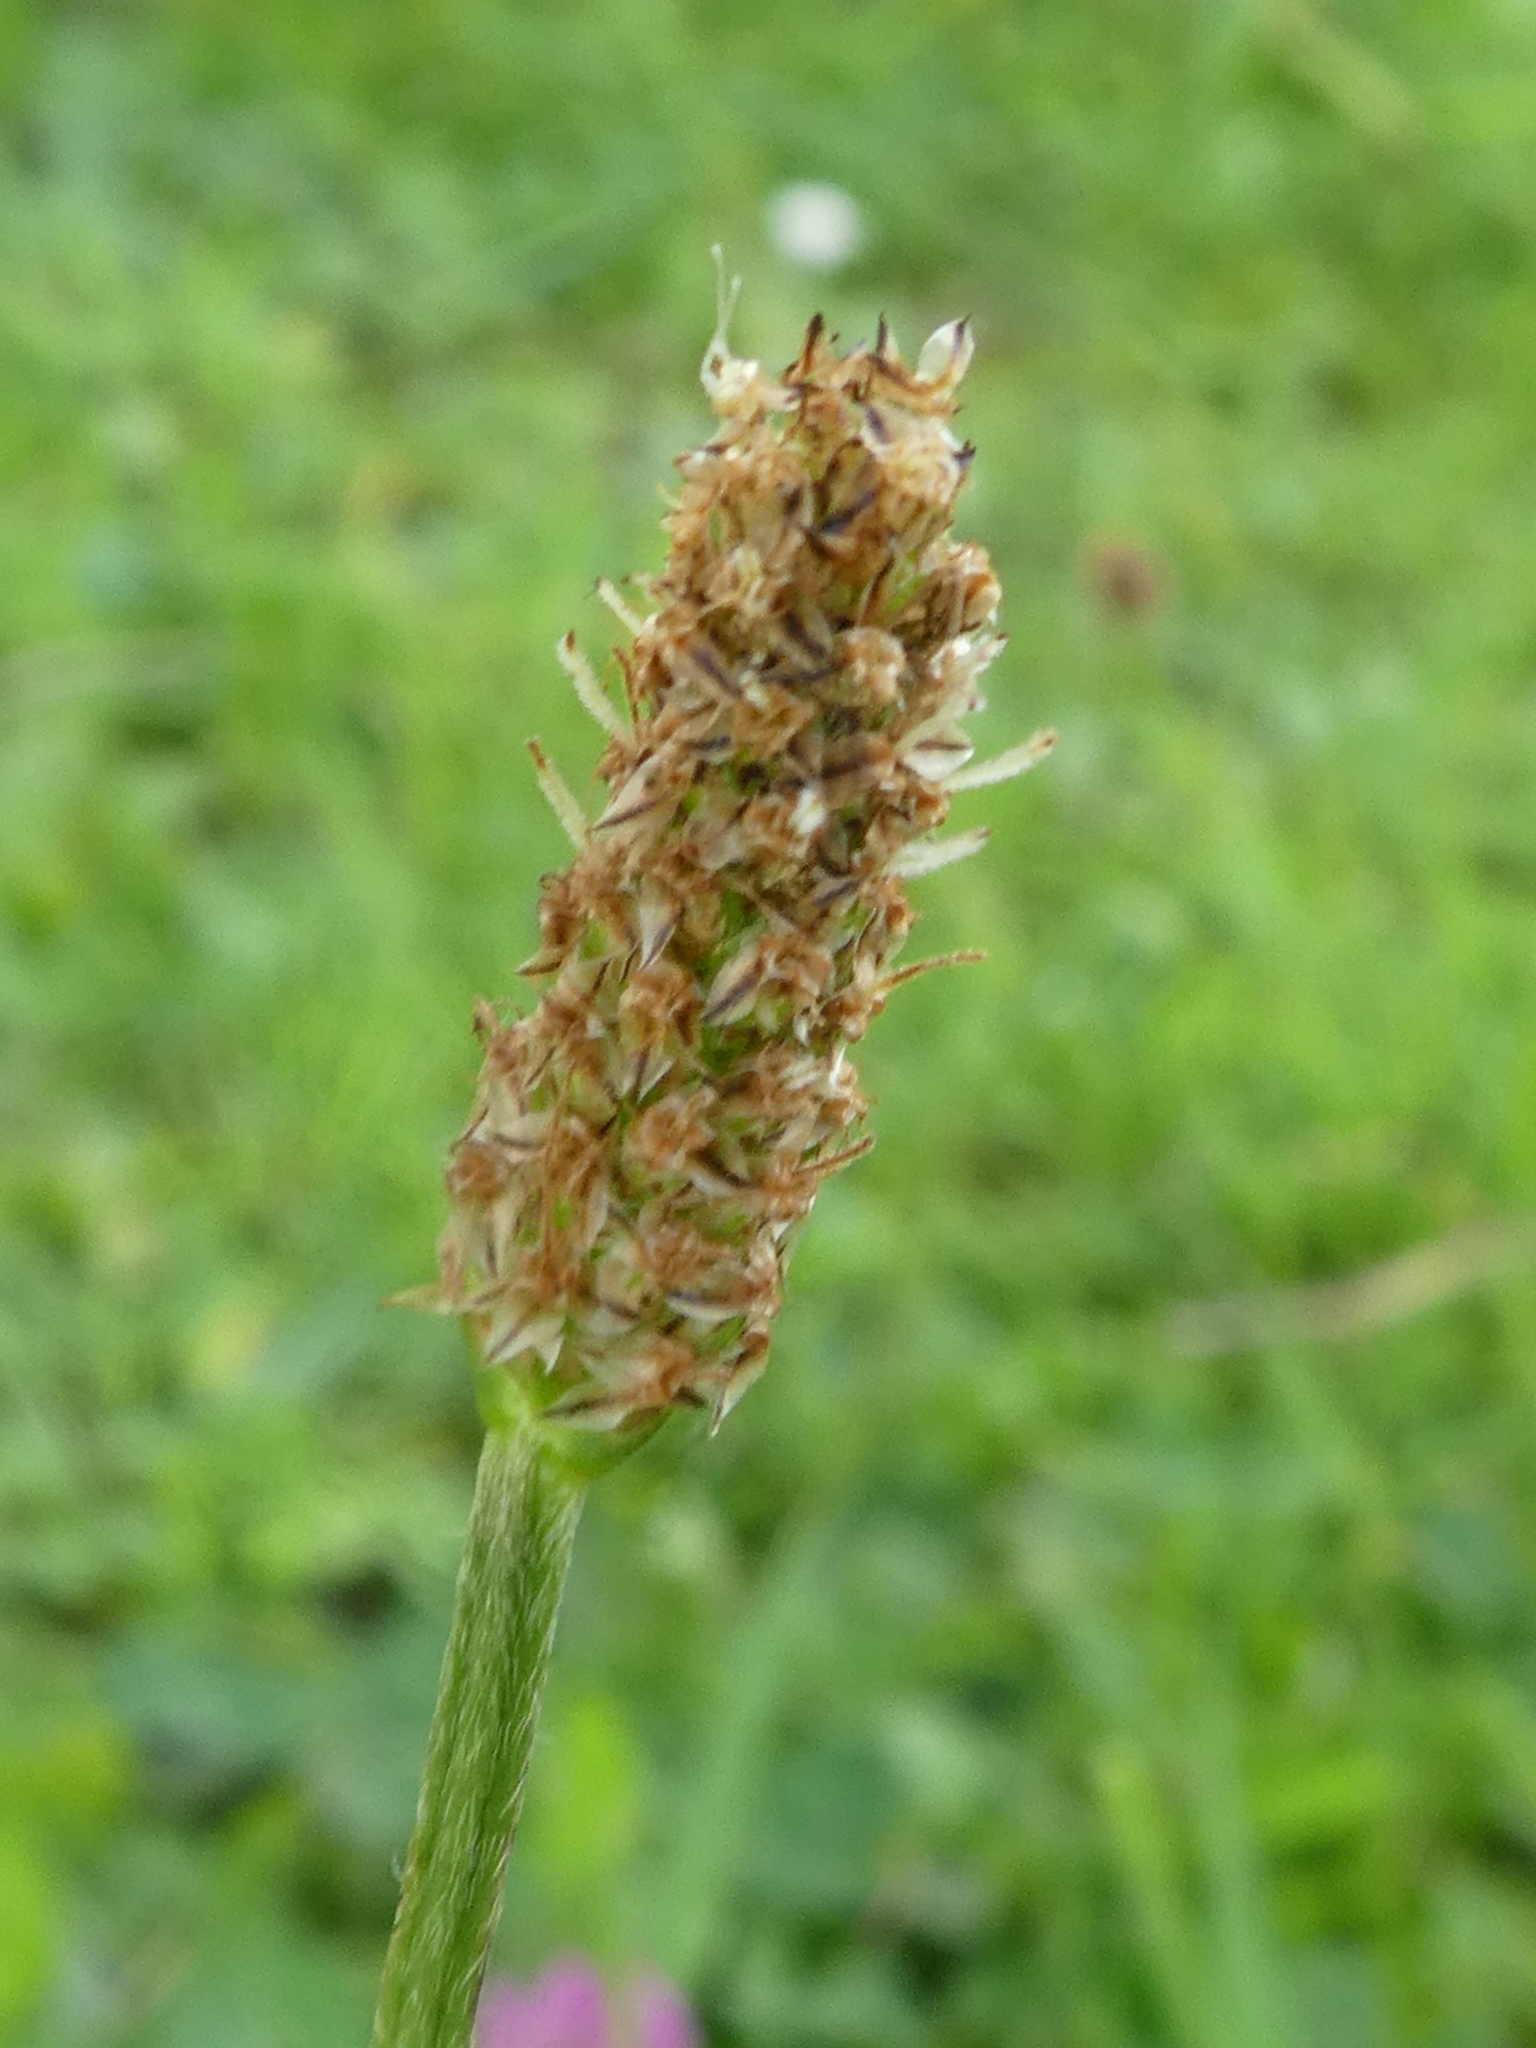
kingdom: Plantae
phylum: Tracheophyta
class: Magnoliopsida
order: Lamiales
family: Plantaginaceae
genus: Plantago
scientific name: Plantago lanceolata
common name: Ribwort plantain
